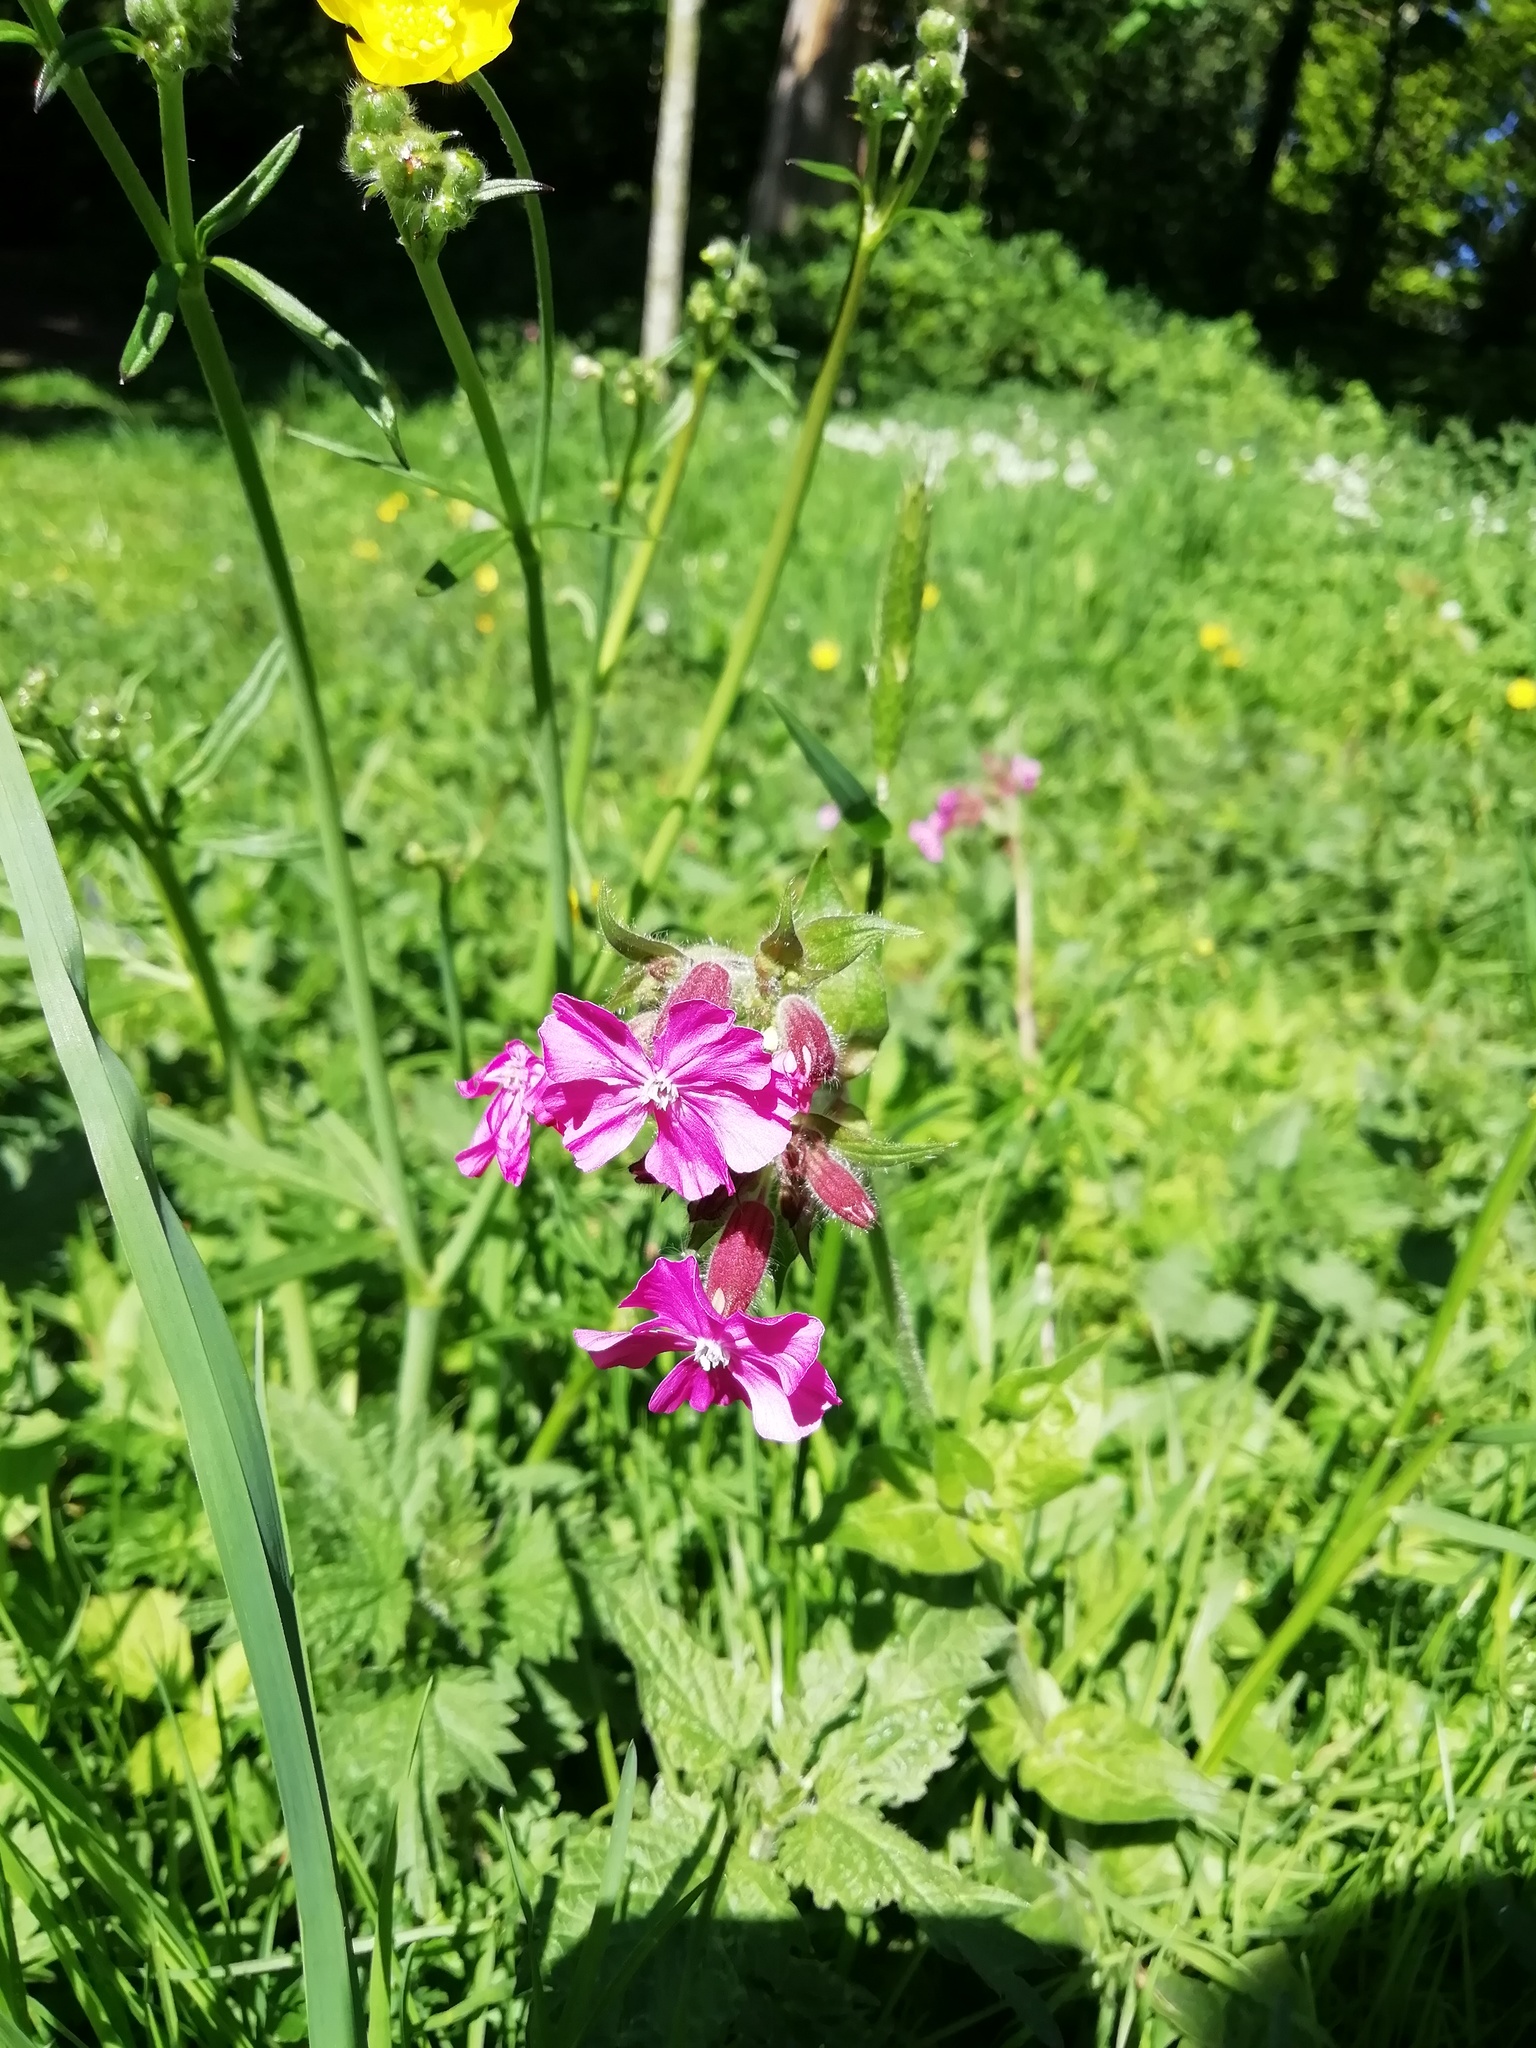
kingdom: Plantae
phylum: Tracheophyta
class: Magnoliopsida
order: Caryophyllales
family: Caryophyllaceae
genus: Silene
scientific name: Silene dioica
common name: Red campion
